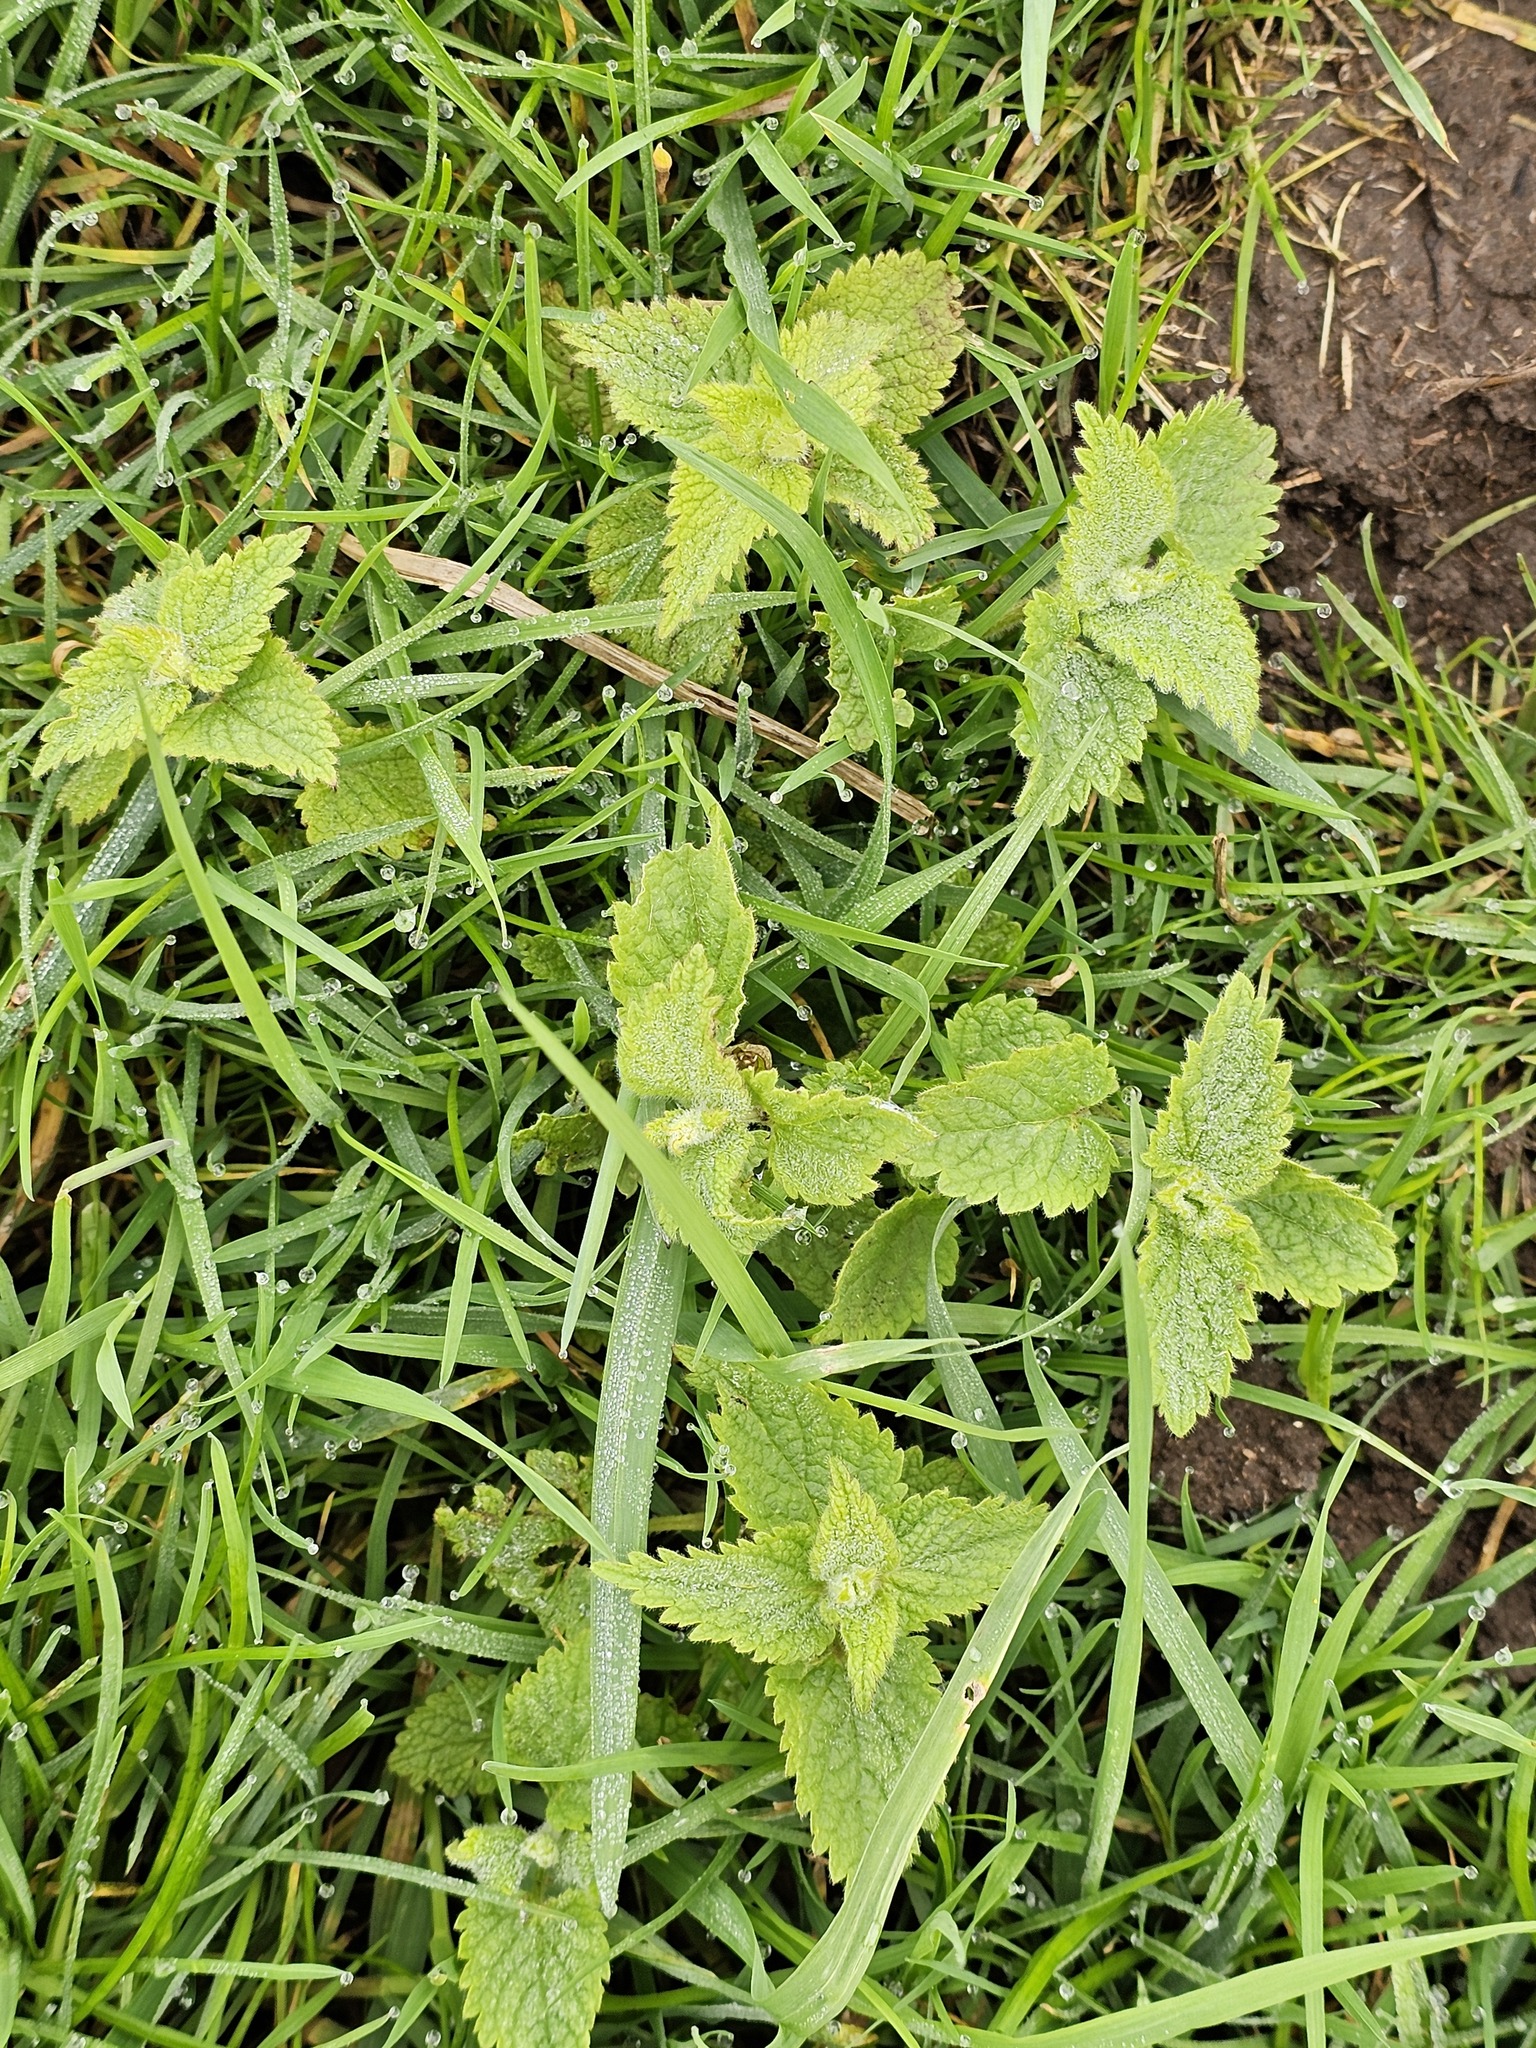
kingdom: Plantae
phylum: Tracheophyta
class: Magnoliopsida
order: Lamiales
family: Lamiaceae
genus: Lamium
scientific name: Lamium album
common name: White dead-nettle
